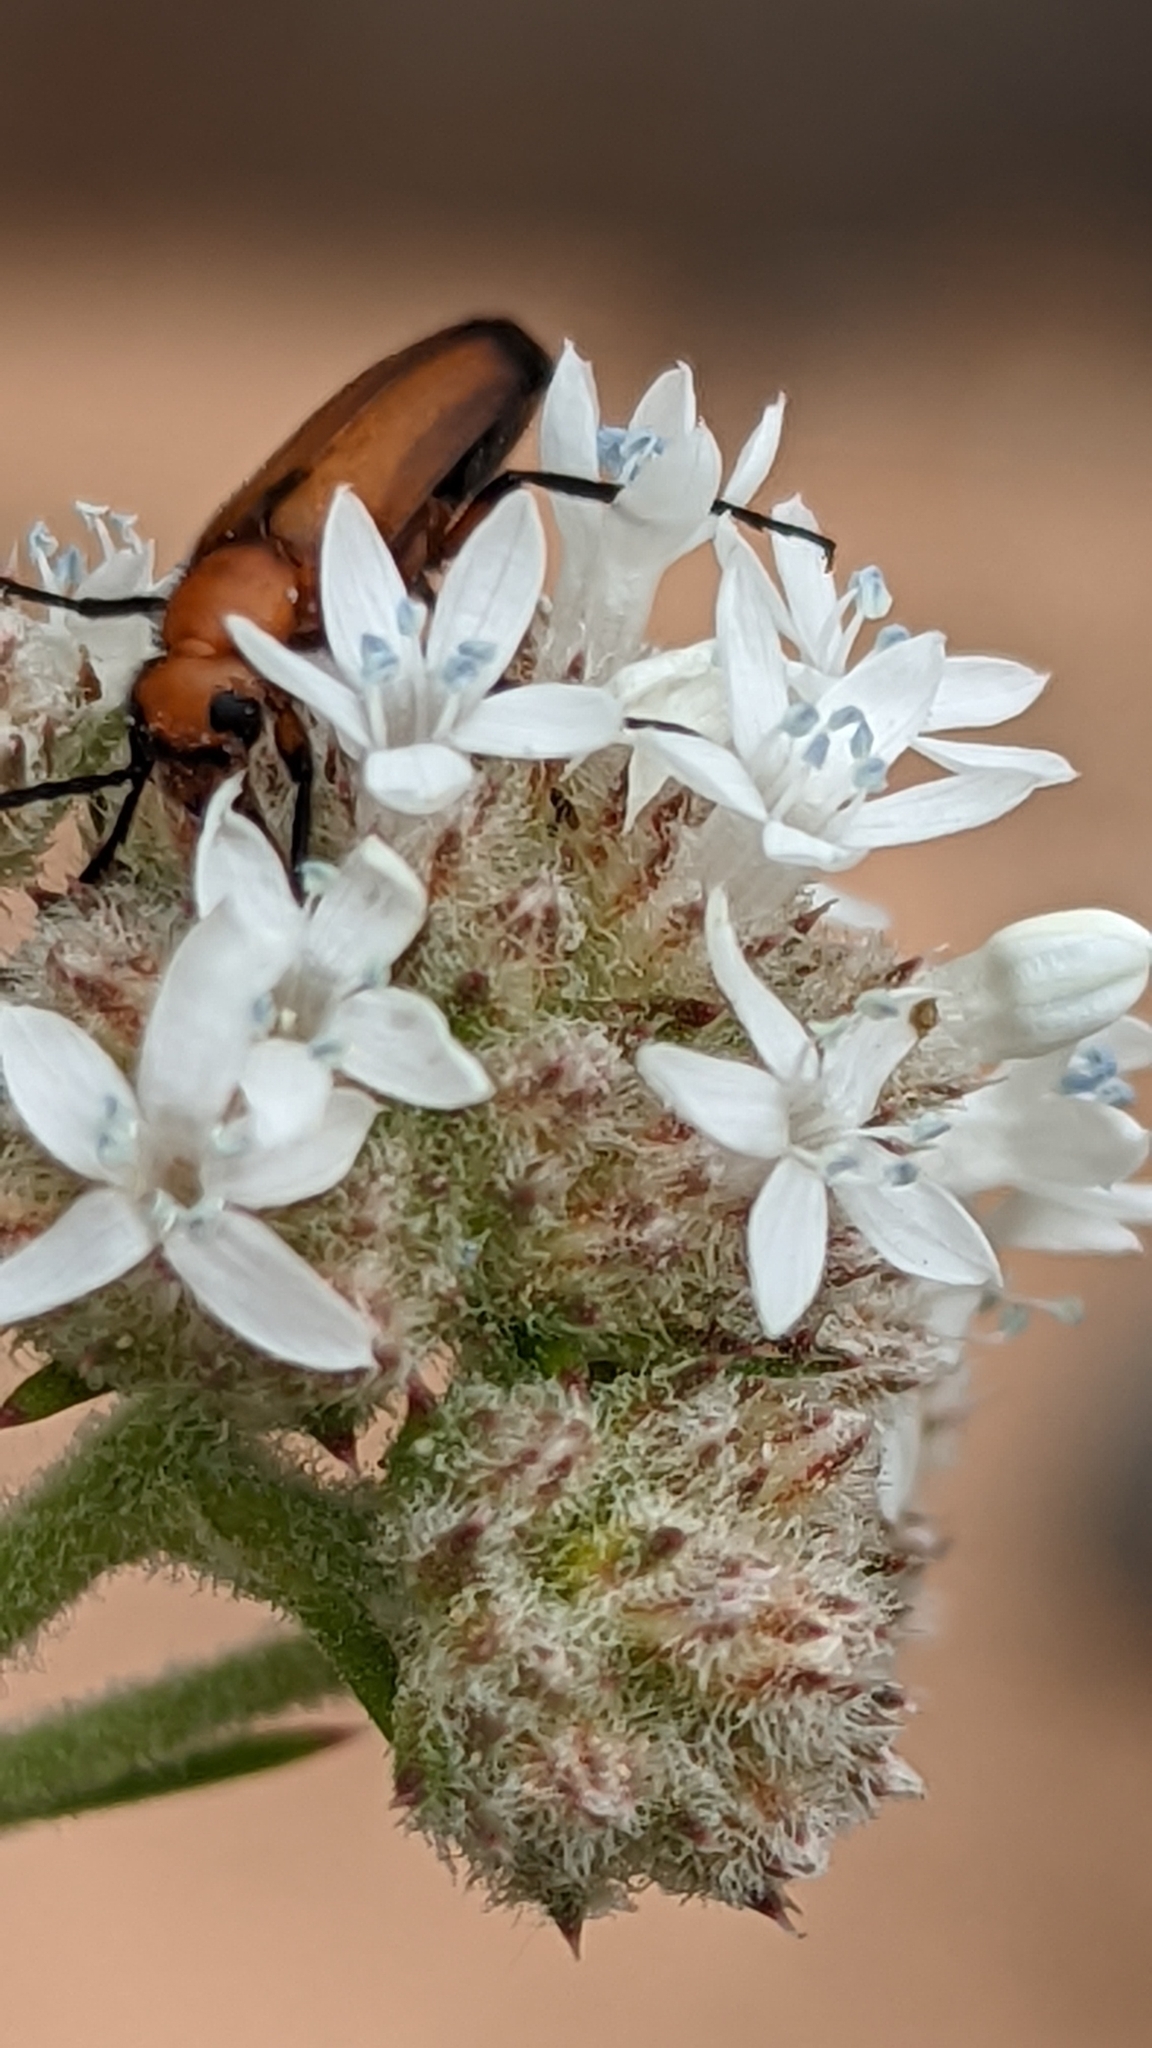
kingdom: Plantae
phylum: Tracheophyta
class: Magnoliopsida
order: Ericales
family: Polemoniaceae
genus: Ipomopsis
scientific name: Ipomopsis congesta
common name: Ball-head gilia
